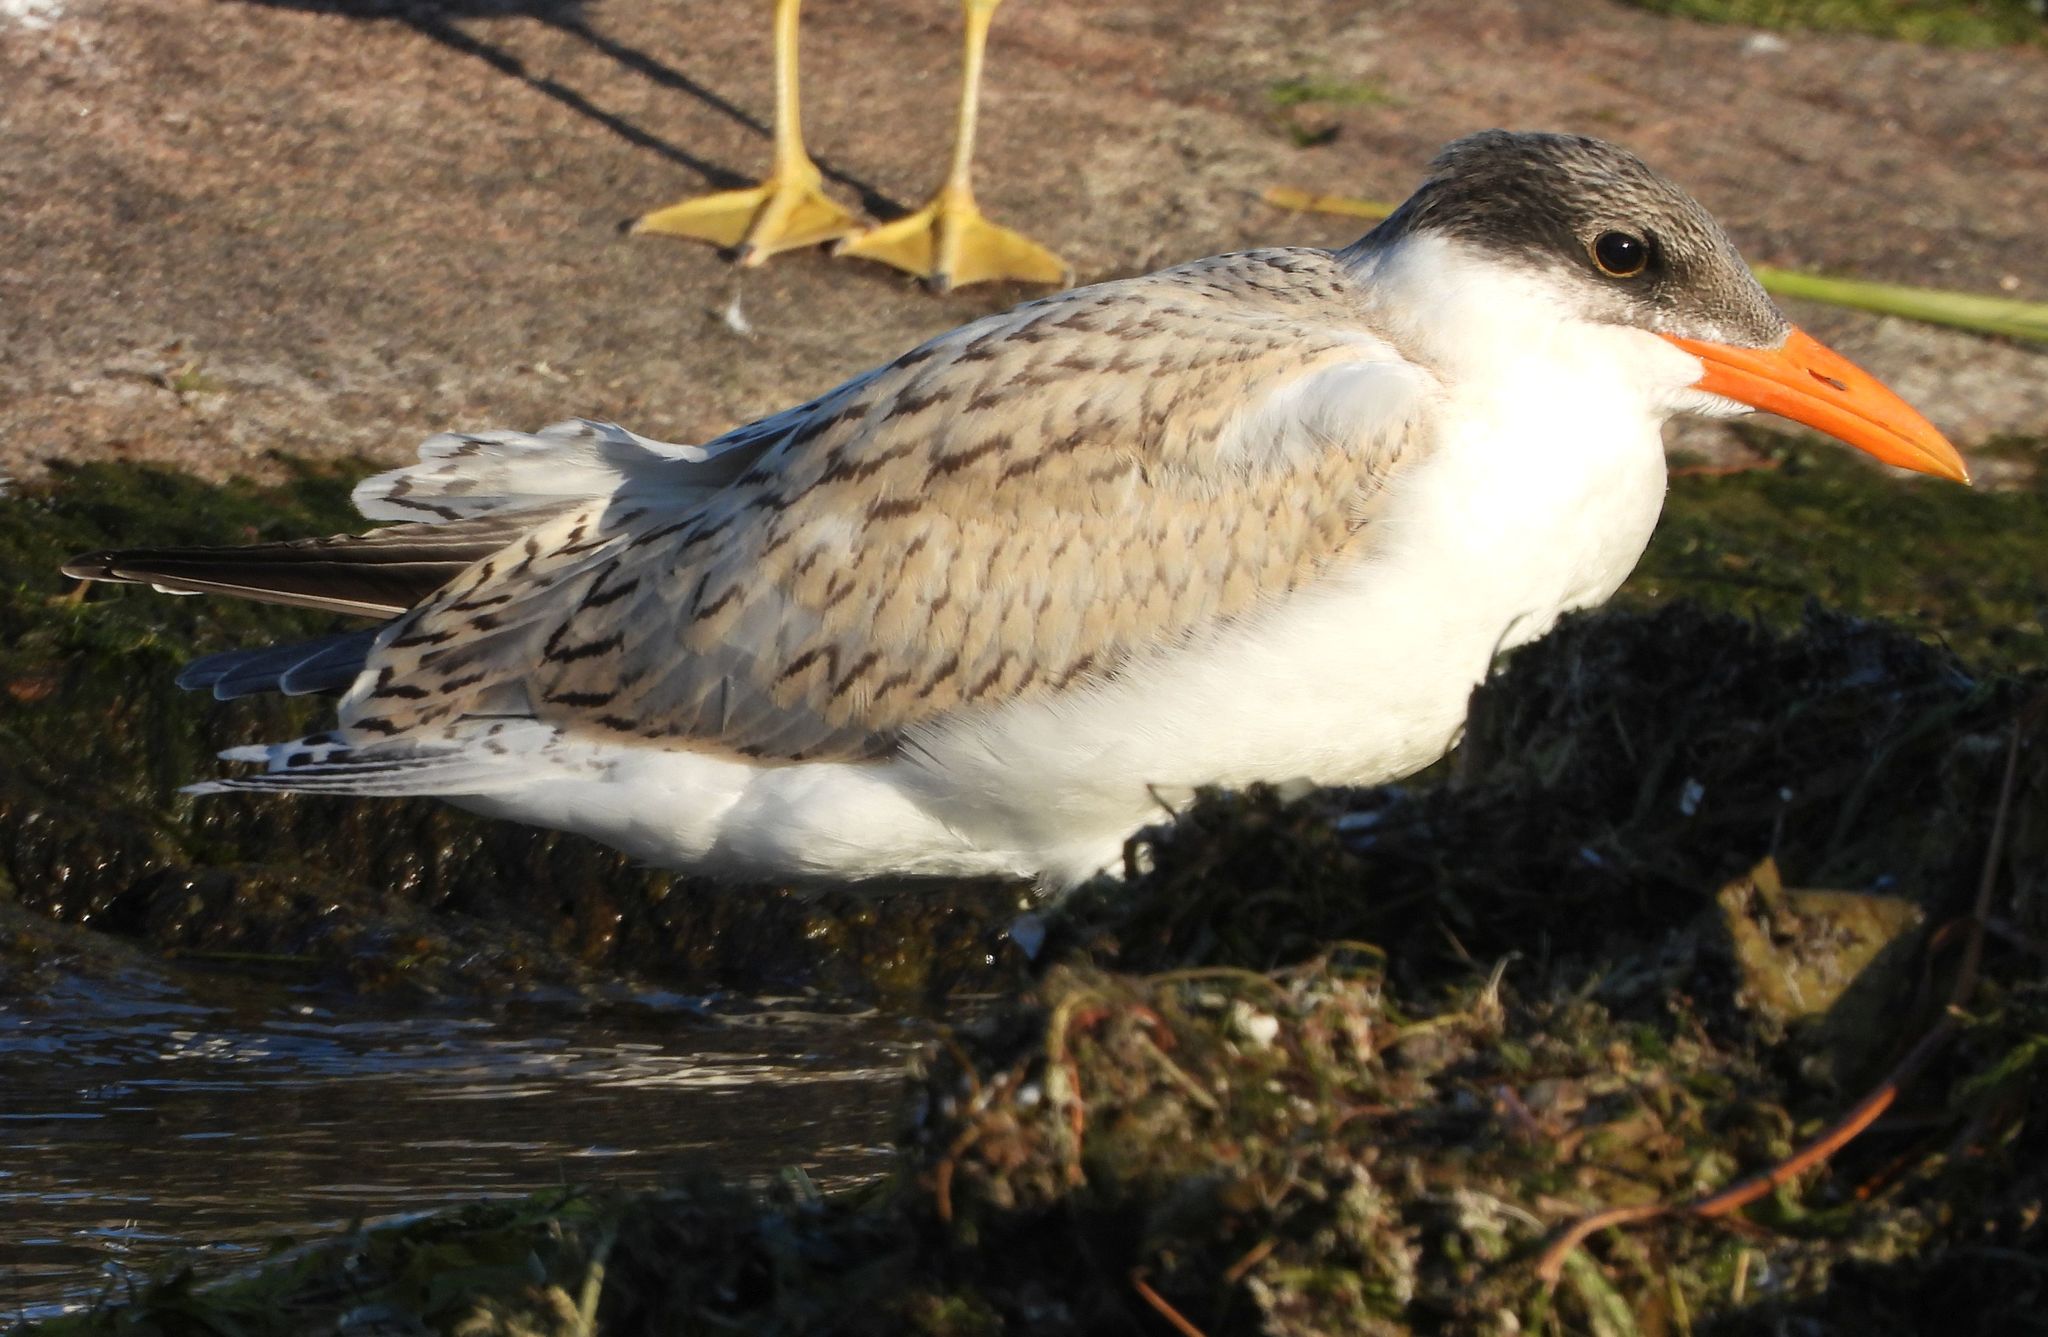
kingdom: Animalia
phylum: Chordata
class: Aves
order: Charadriiformes
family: Laridae
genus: Hydroprogne
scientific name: Hydroprogne caspia
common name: Caspian tern
